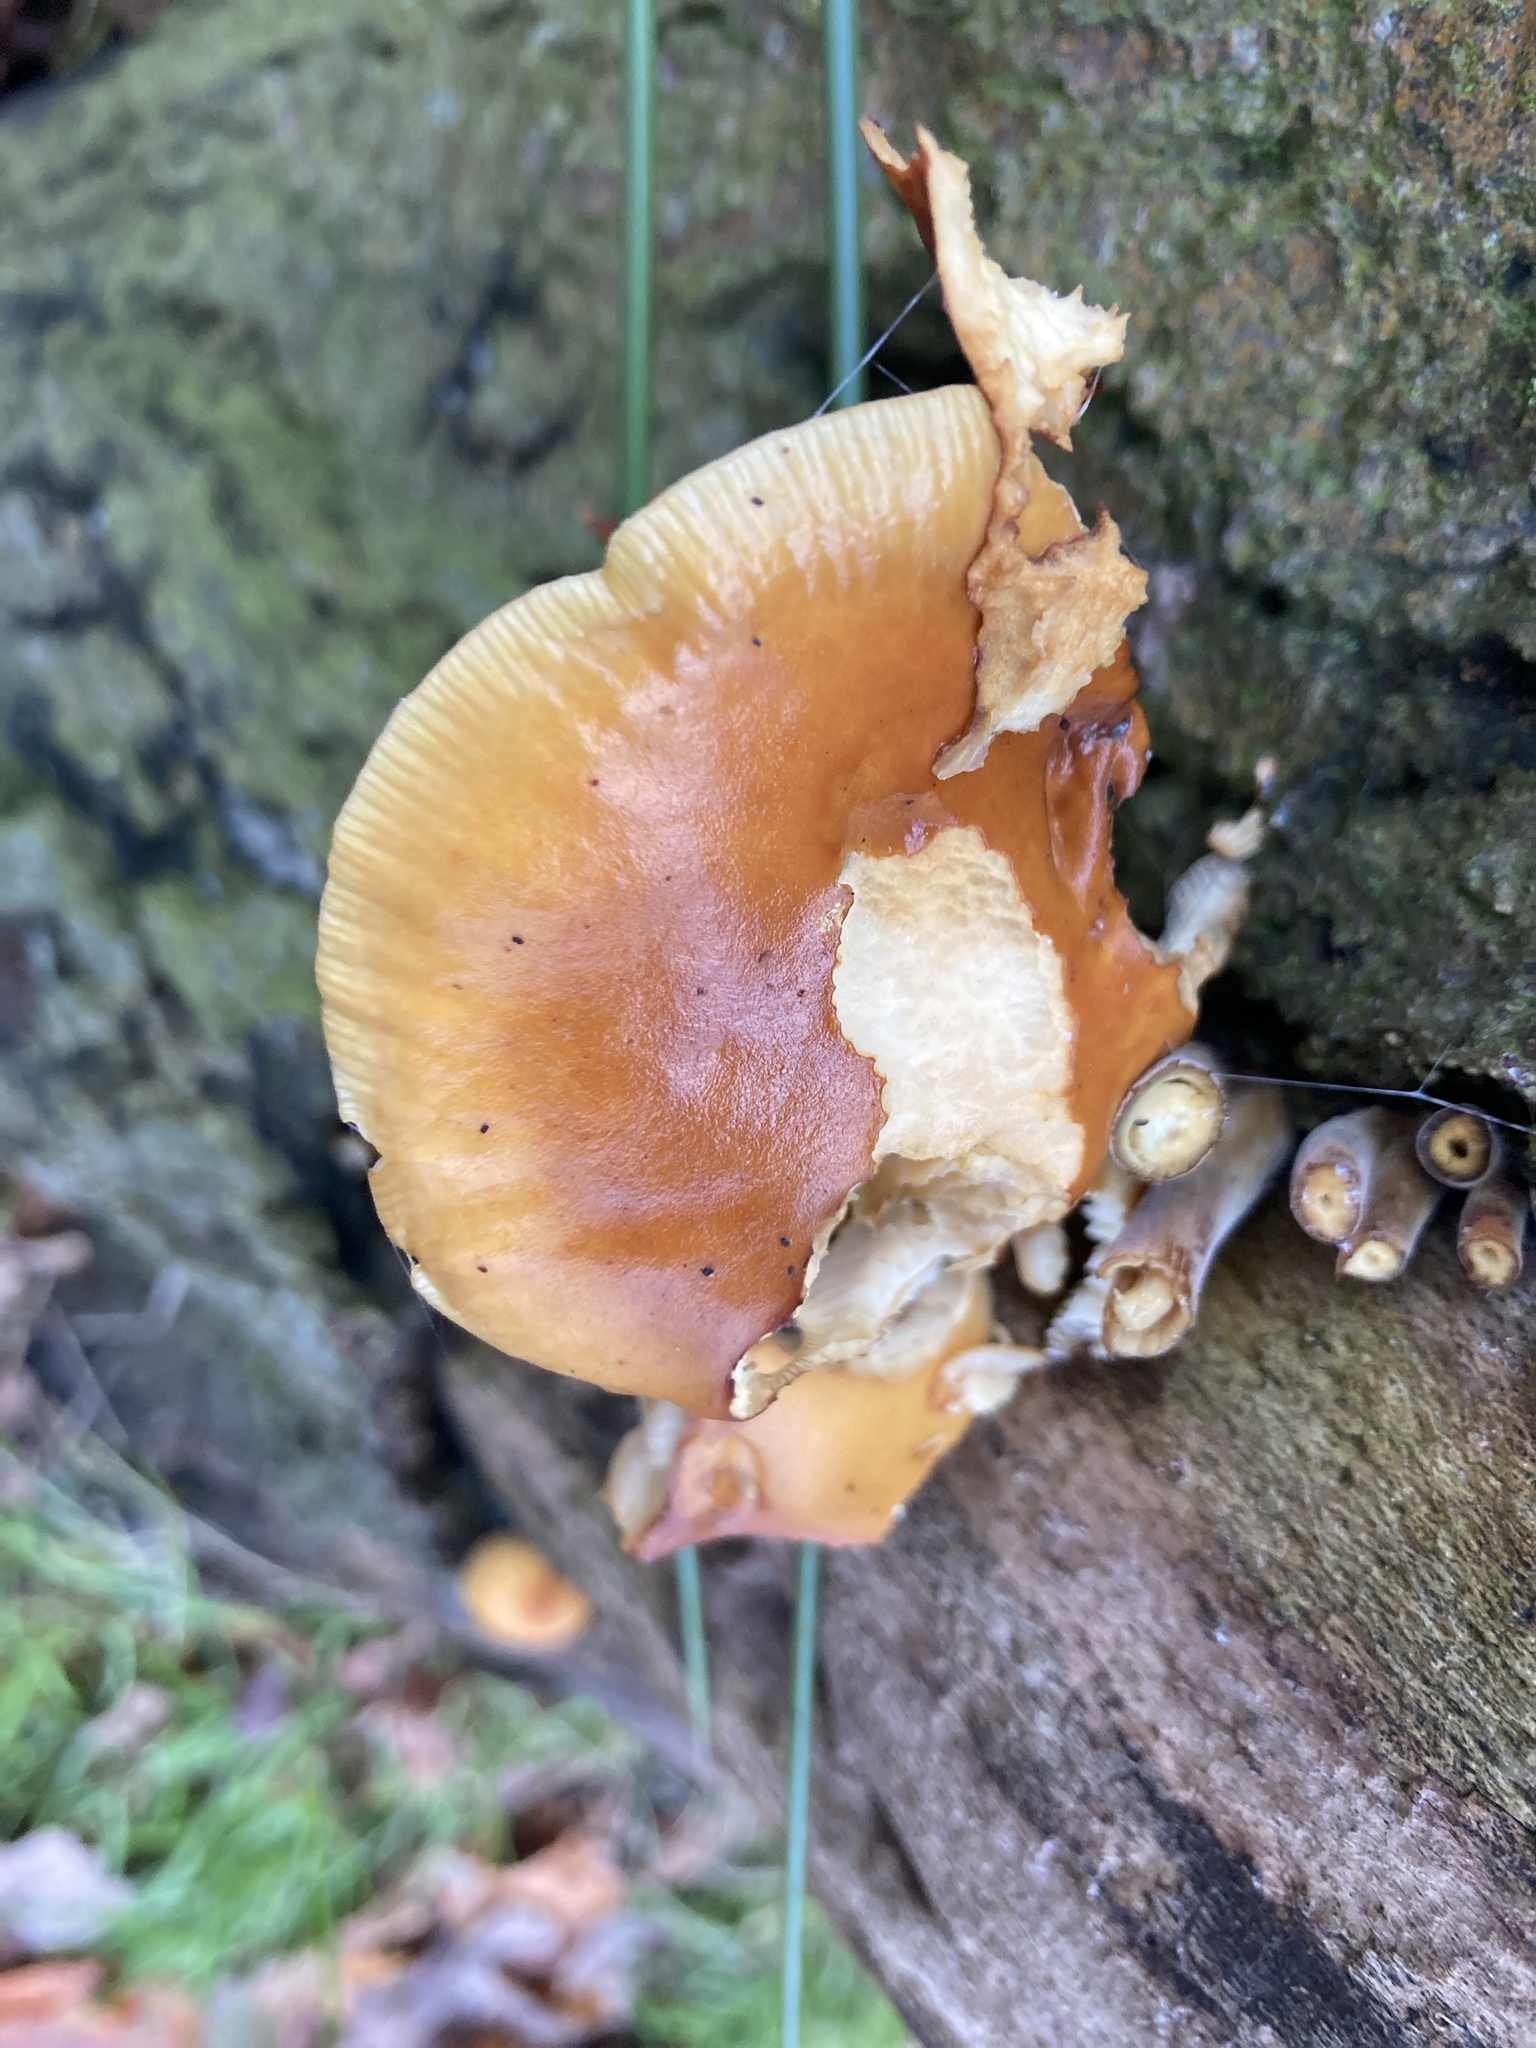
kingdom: Fungi
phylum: Basidiomycota
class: Agaricomycetes
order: Agaricales
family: Physalacriaceae
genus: Flammulina
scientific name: Flammulina
